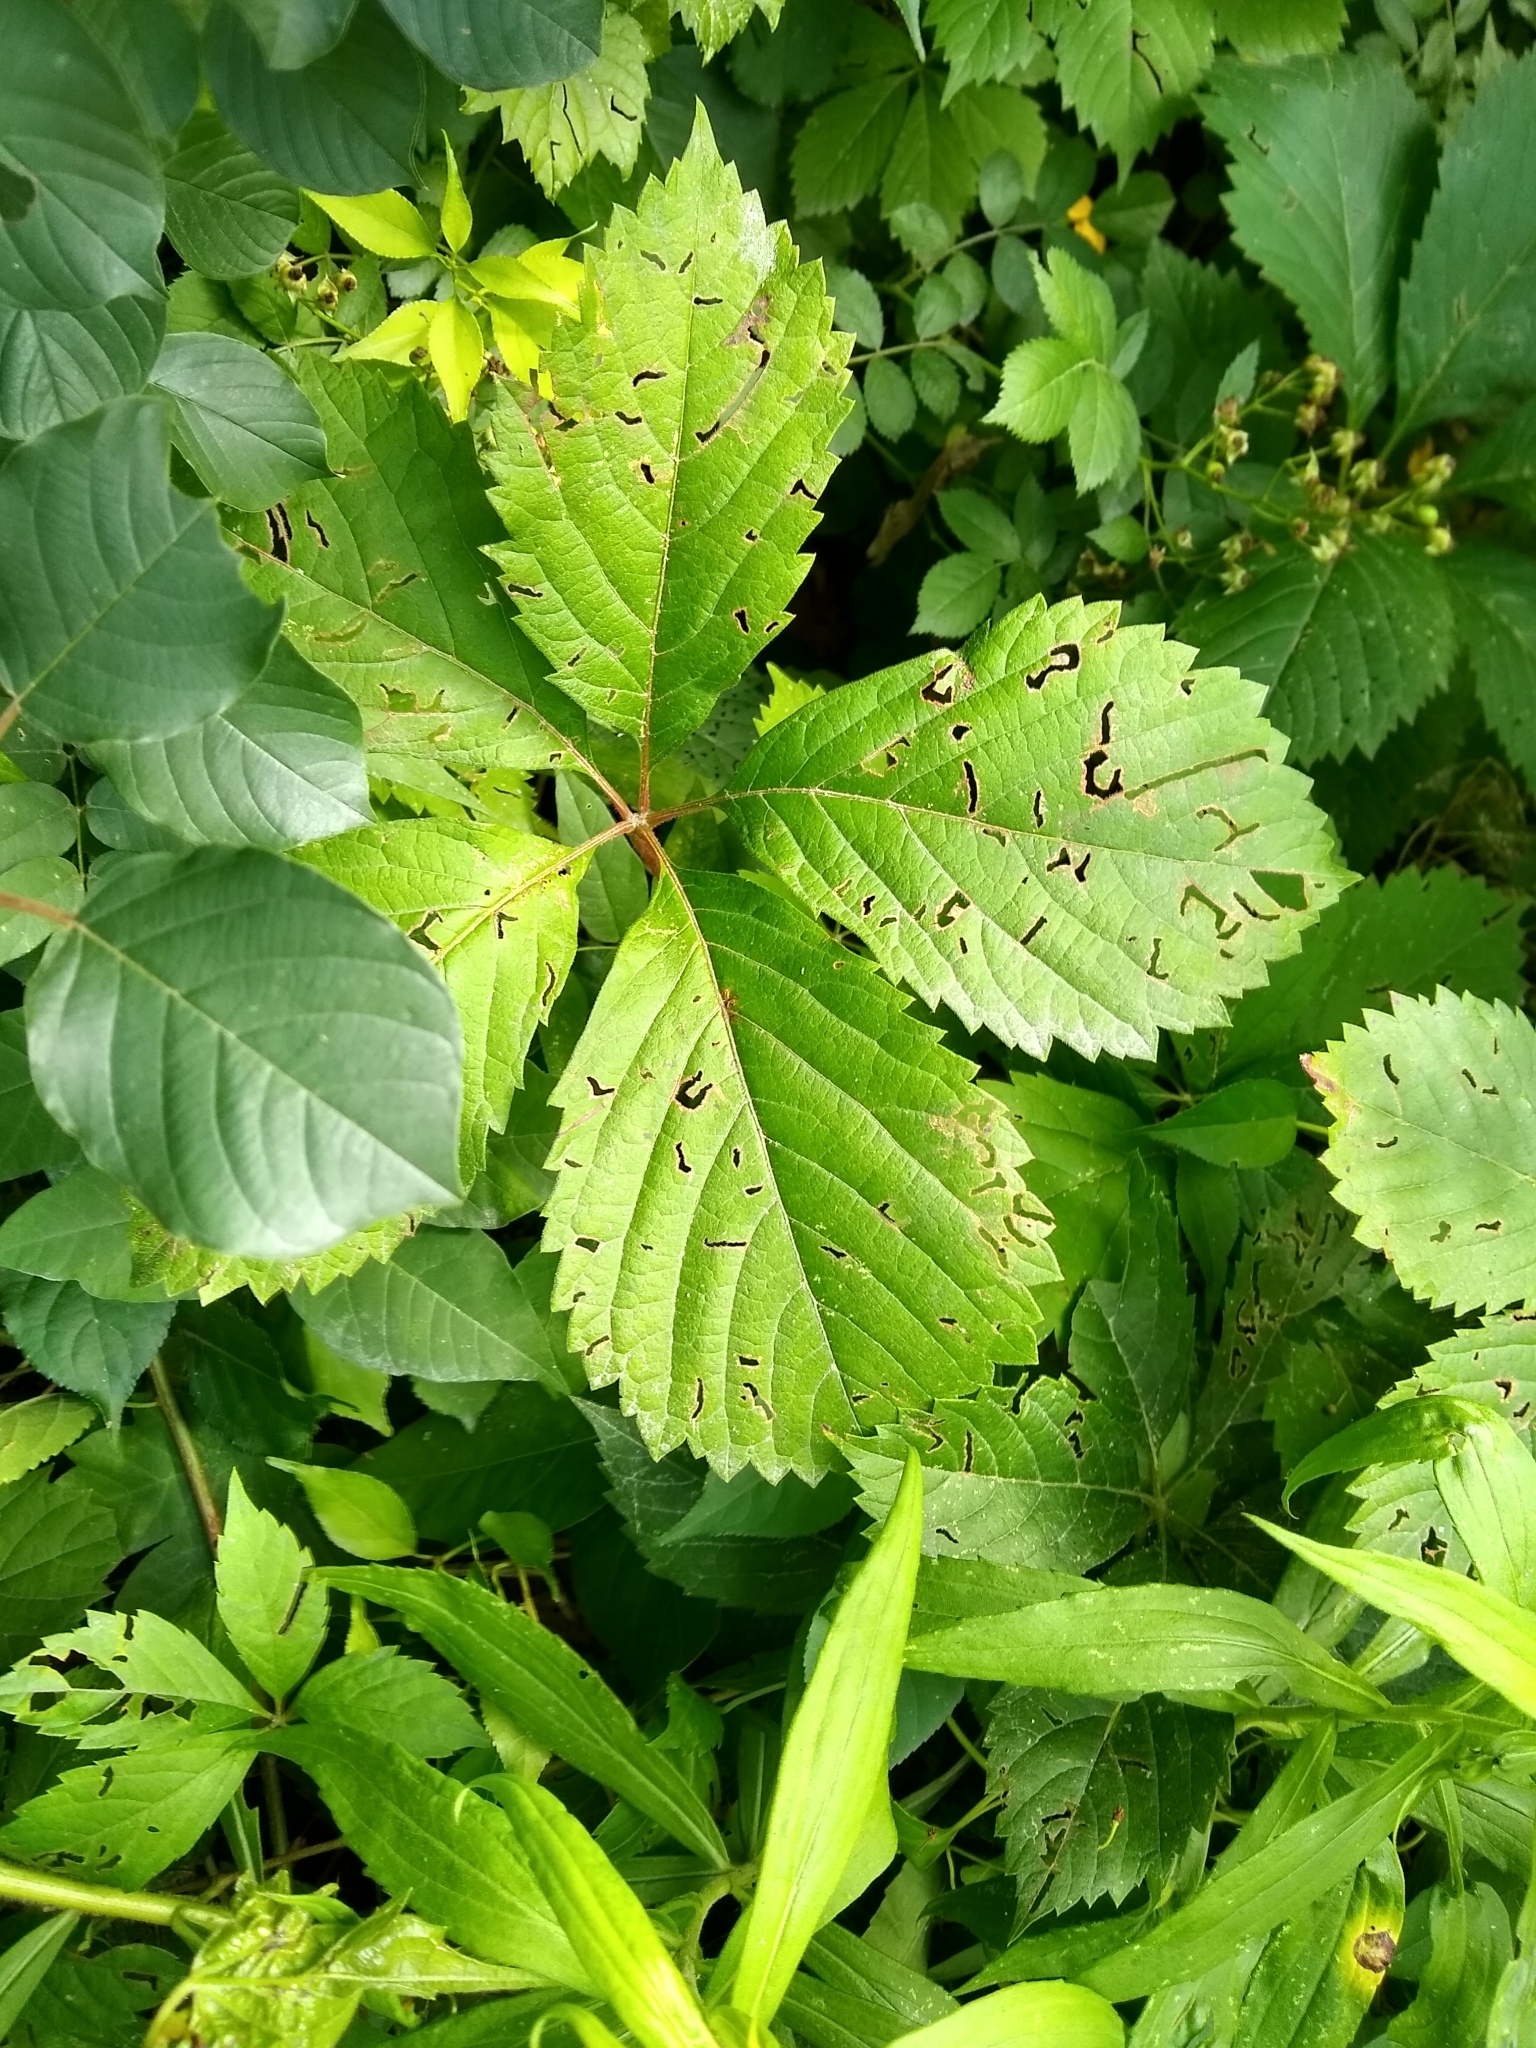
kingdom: Plantae
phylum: Tracheophyta
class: Magnoliopsida
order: Vitales
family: Vitaceae
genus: Parthenocissus
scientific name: Parthenocissus inserta
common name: False virginia-creeper
